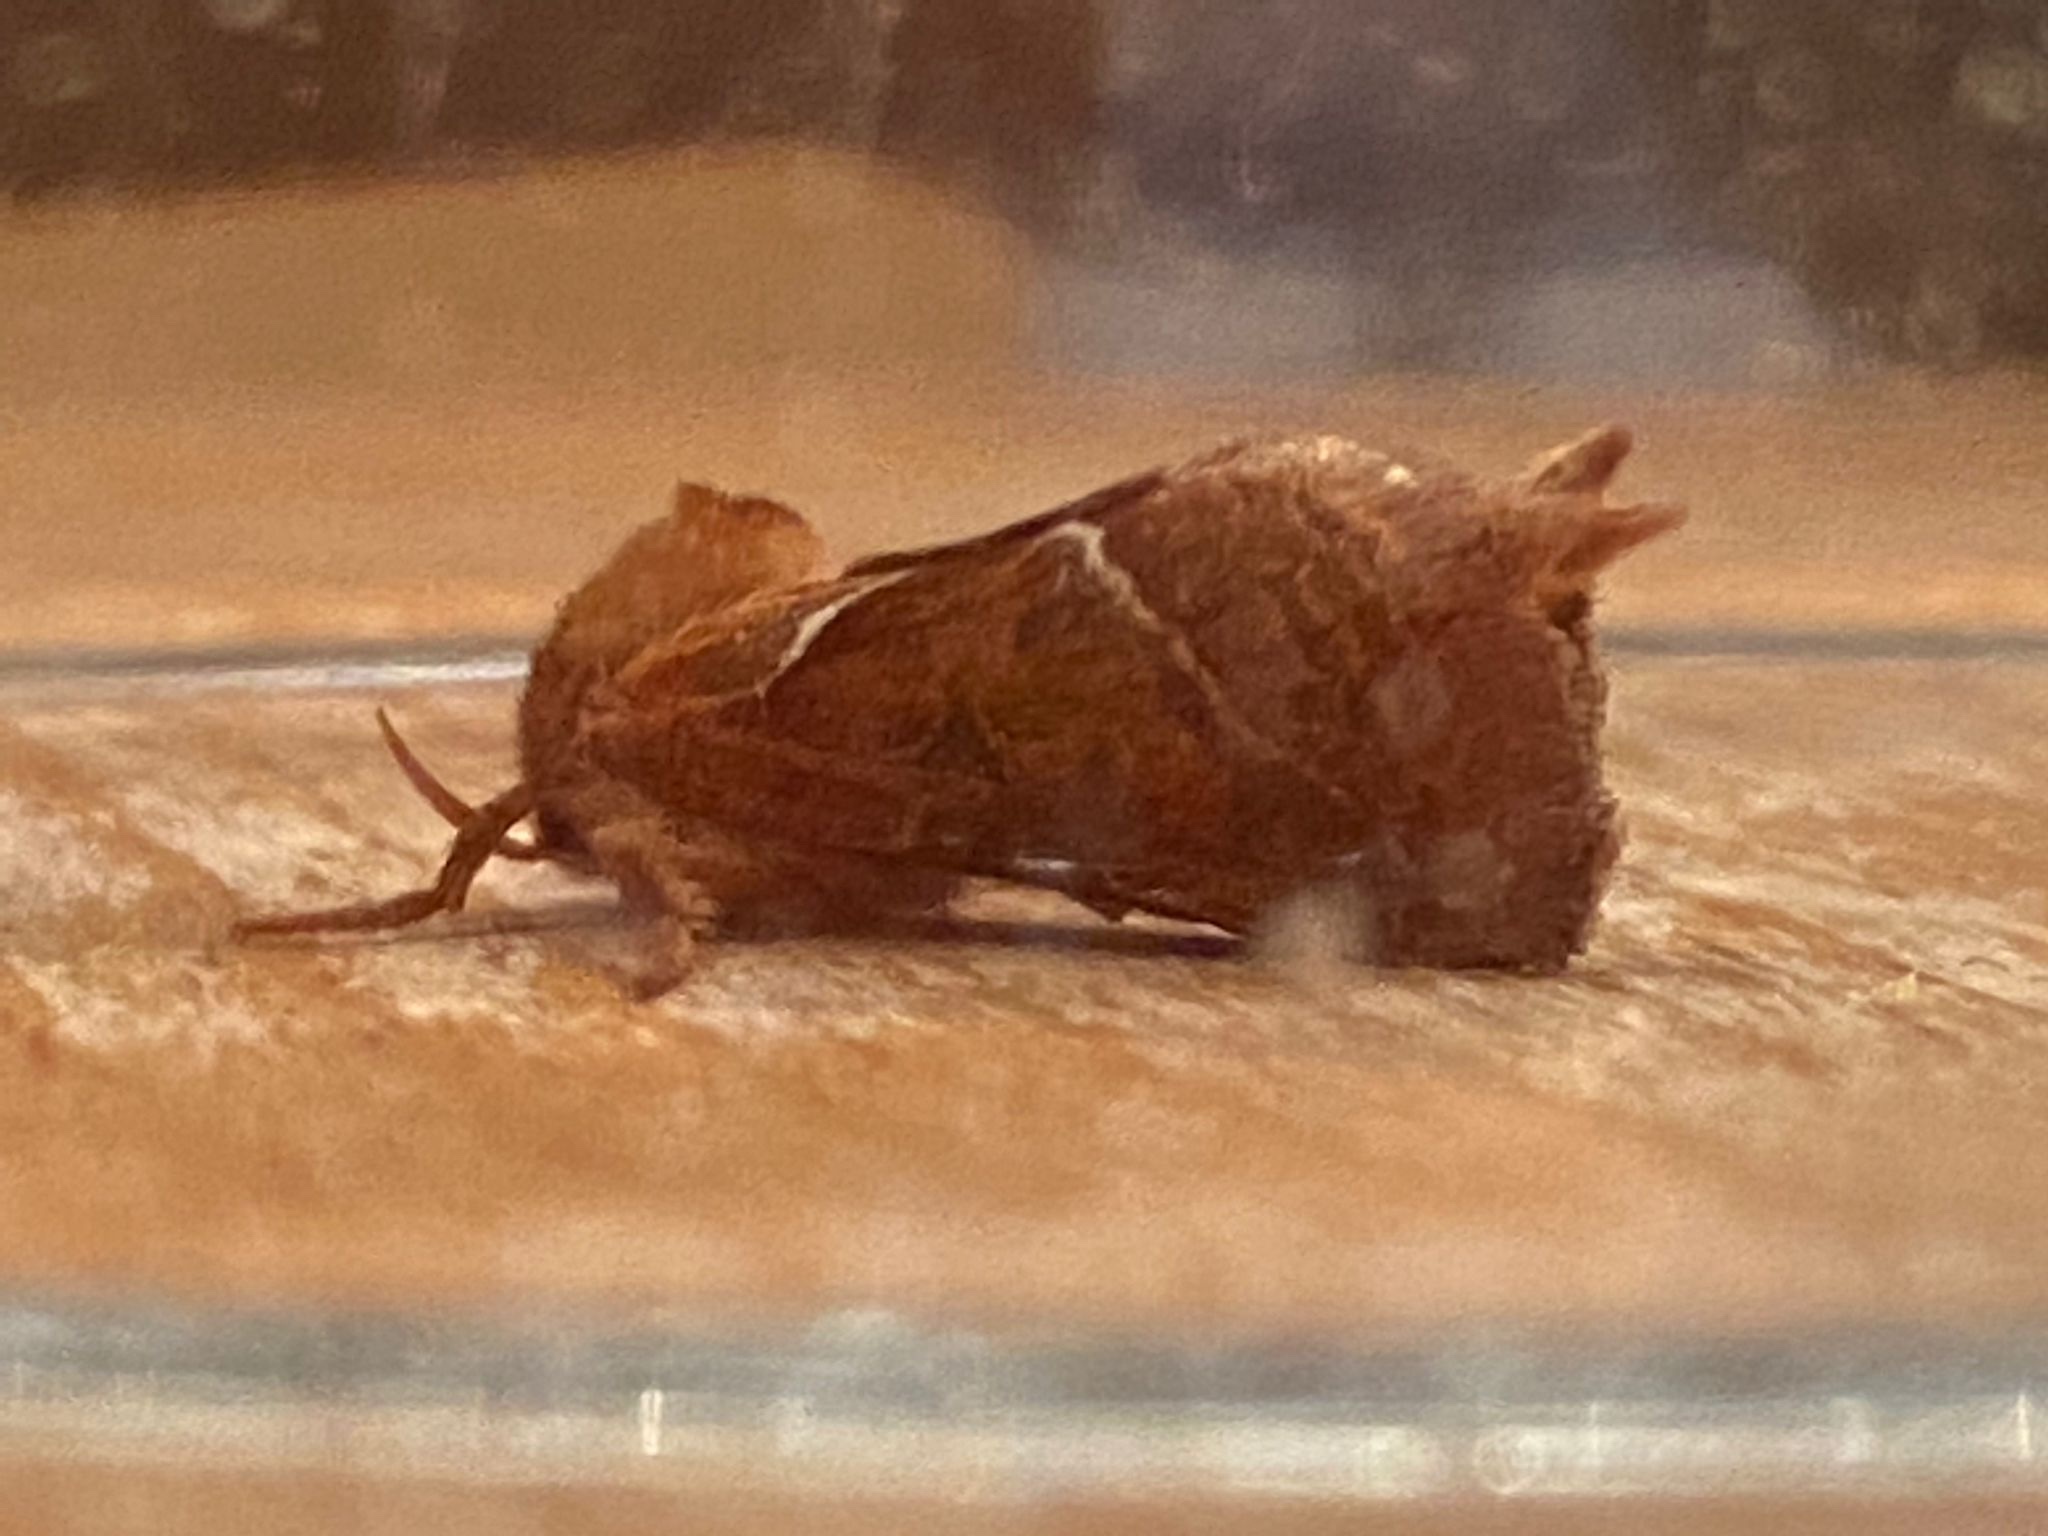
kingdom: Animalia
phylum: Arthropoda
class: Insecta
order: Lepidoptera
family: Hepialidae
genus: Triodia
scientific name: Triodia sylvina
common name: Orange swift
